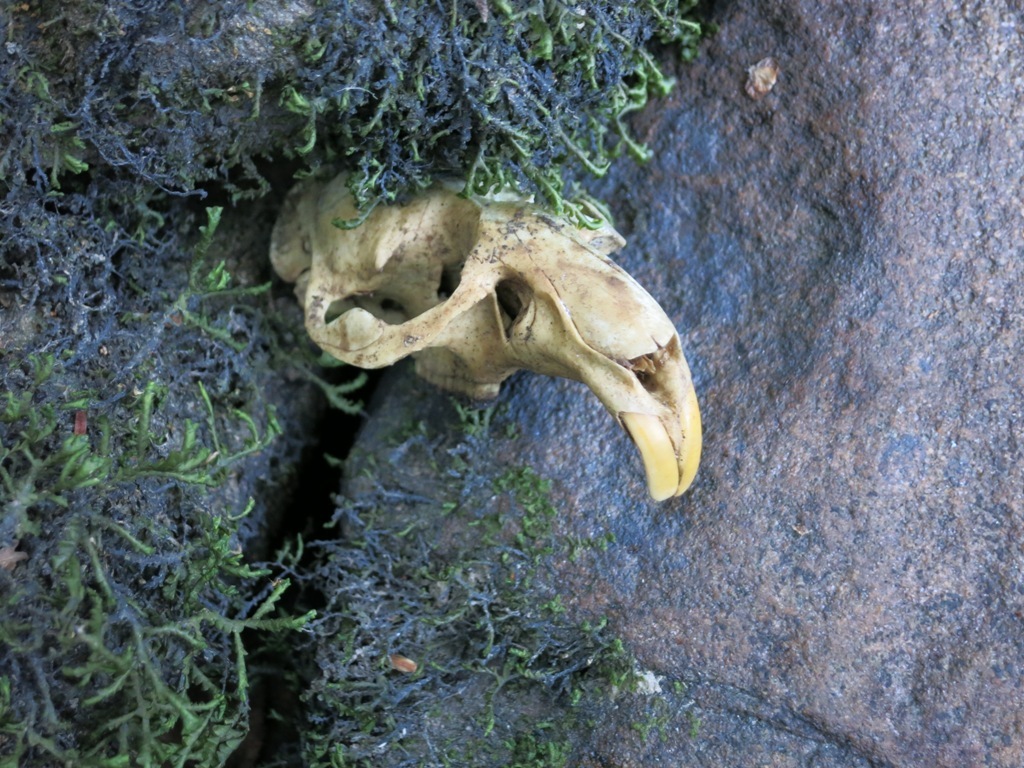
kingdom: Animalia
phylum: Chordata
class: Mammalia
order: Rodentia
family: Cricetidae
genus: Ondatra
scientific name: Ondatra zibethicus
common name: Muskrat
